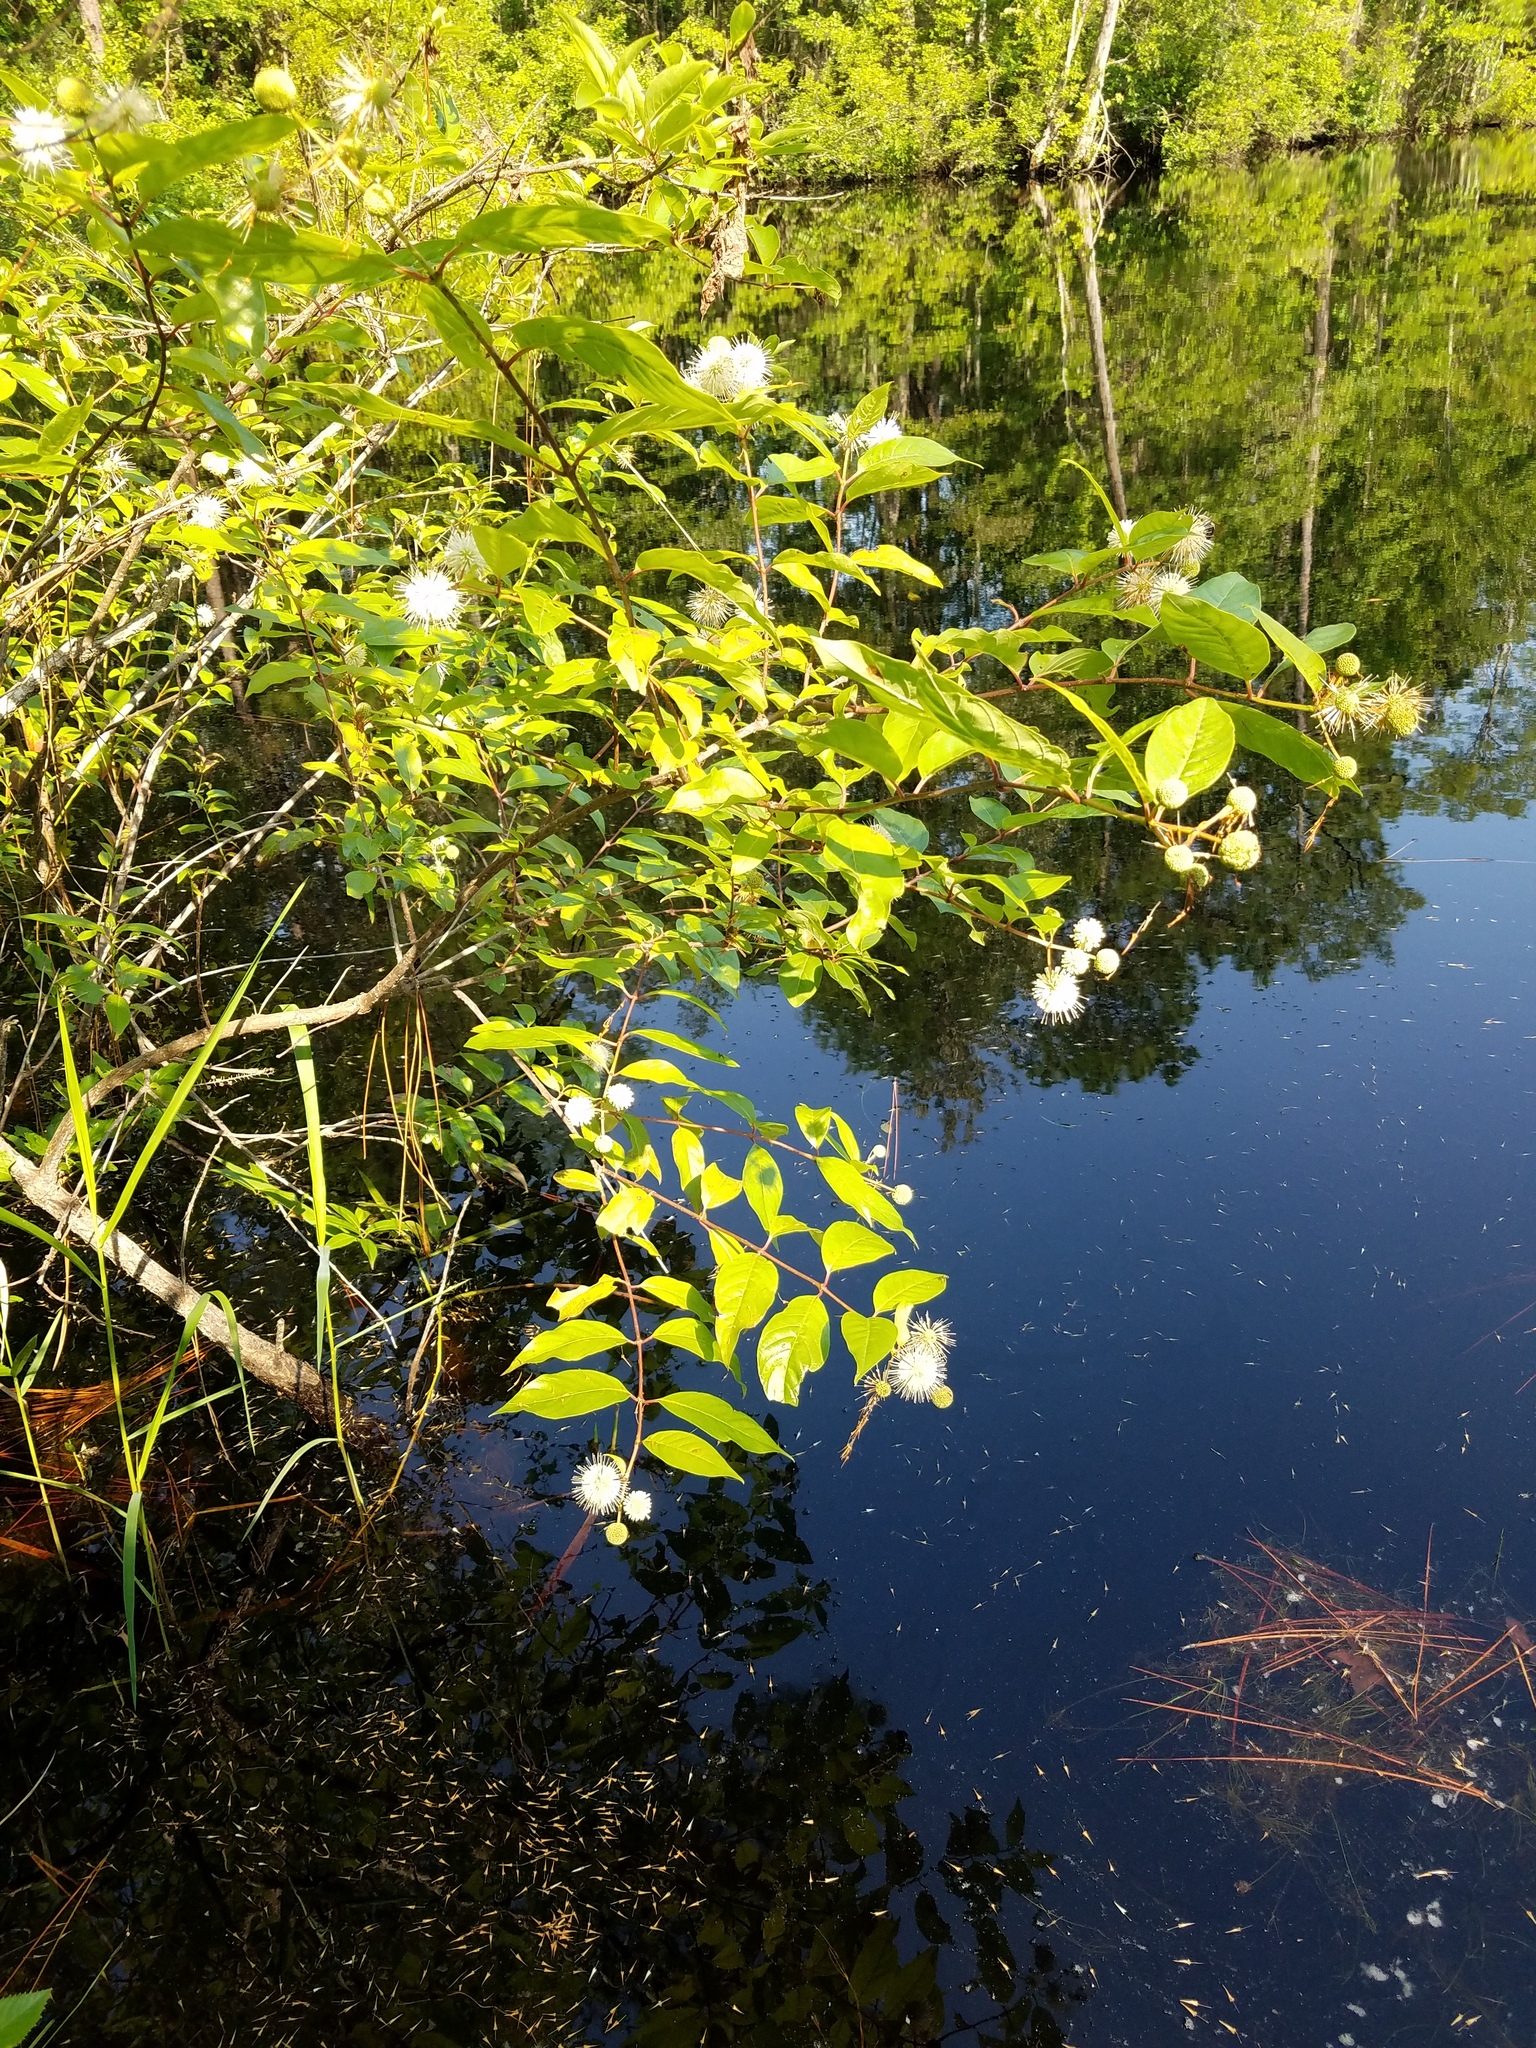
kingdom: Plantae
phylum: Tracheophyta
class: Magnoliopsida
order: Gentianales
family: Rubiaceae
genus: Cephalanthus
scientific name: Cephalanthus occidentalis
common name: Button-willow
